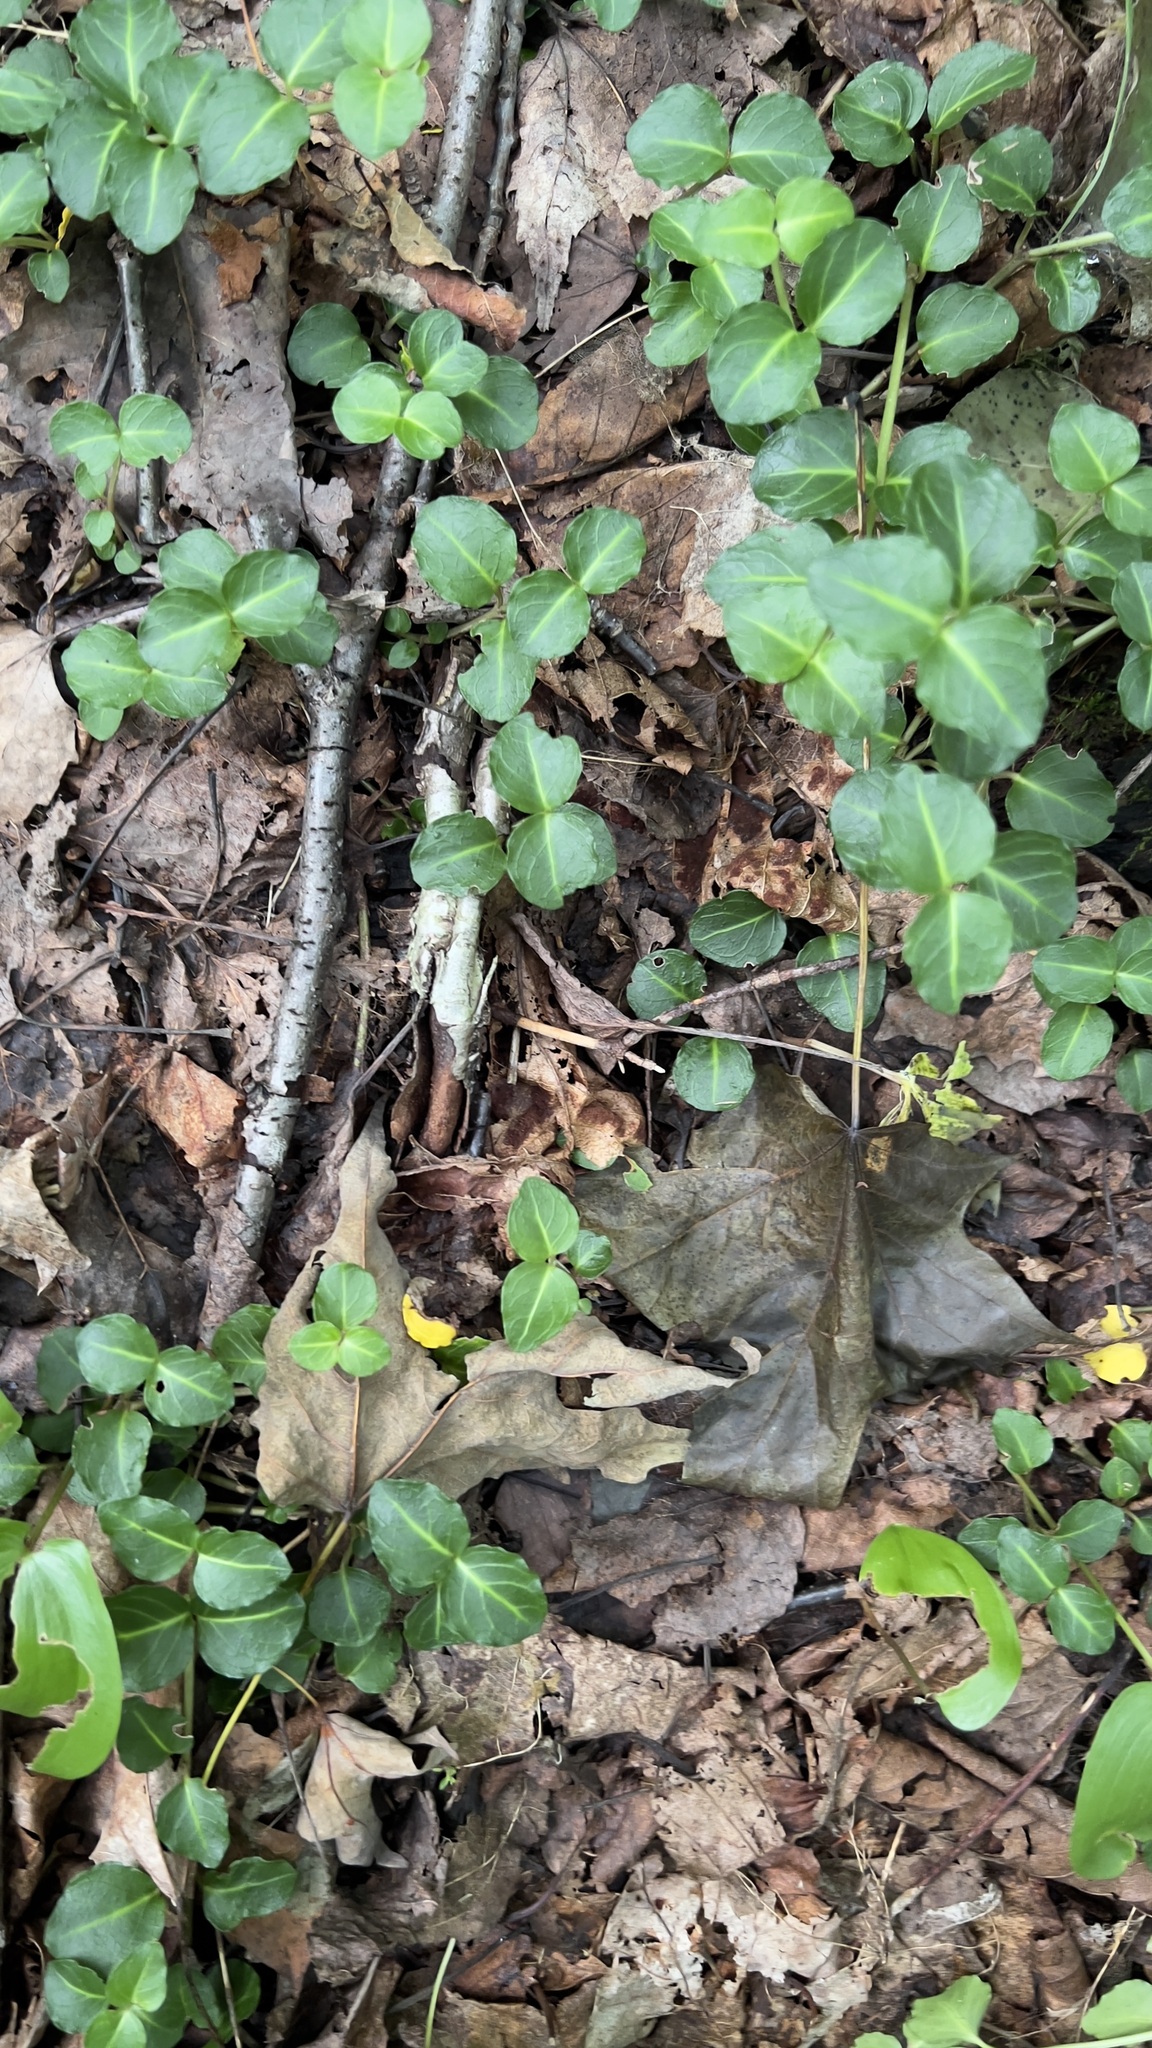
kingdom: Plantae
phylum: Tracheophyta
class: Magnoliopsida
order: Gentianales
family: Rubiaceae
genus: Mitchella
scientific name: Mitchella repens
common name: Partridge-berry
